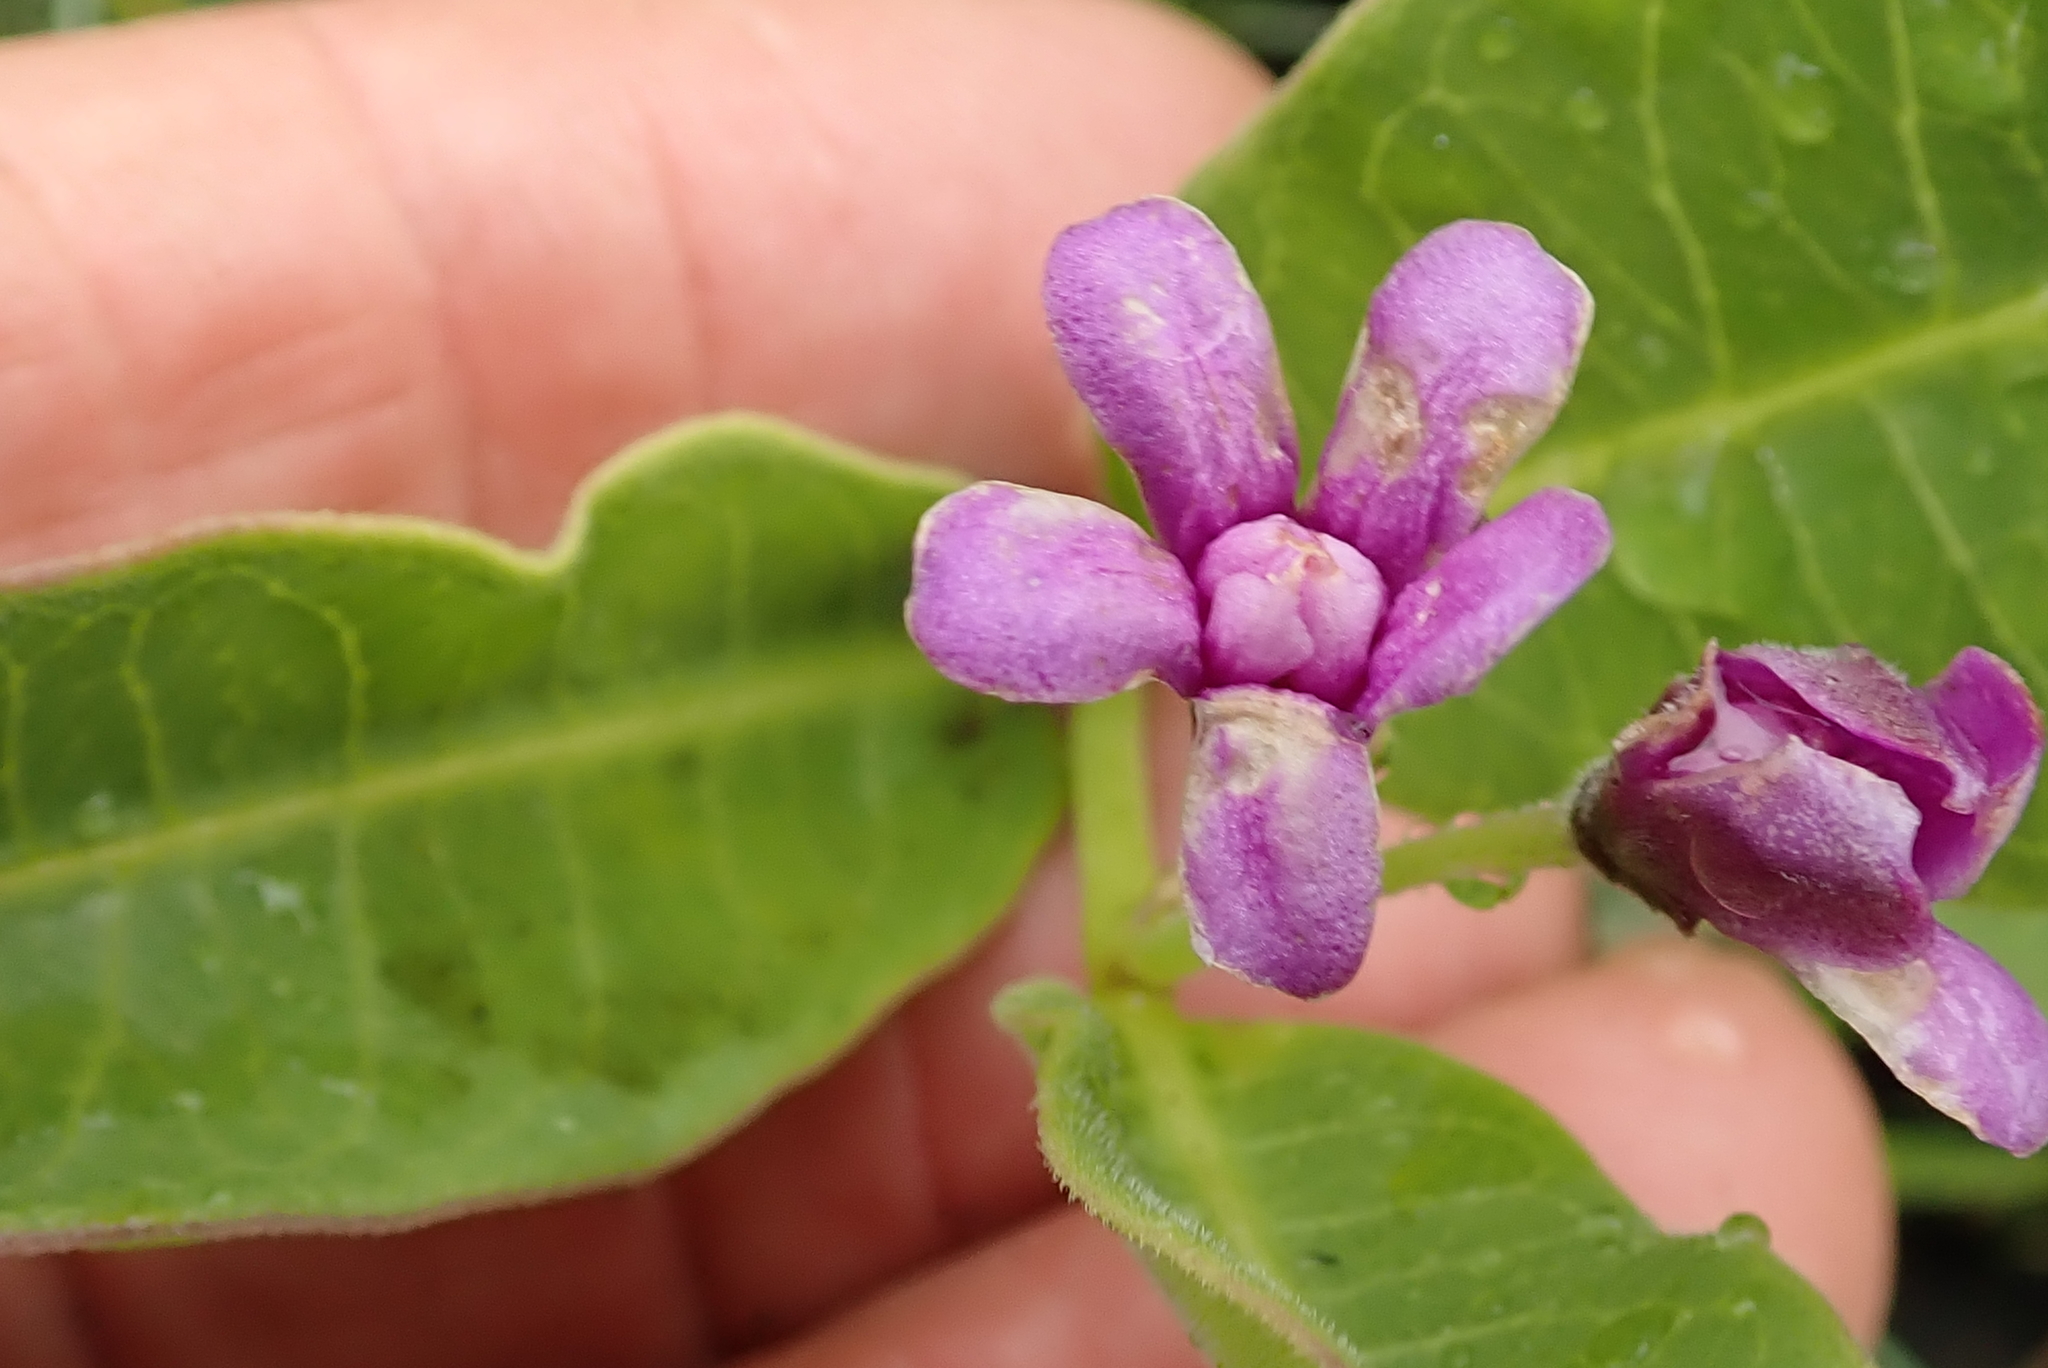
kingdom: Plantae
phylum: Tracheophyta
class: Magnoliopsida
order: Gentianales
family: Apocynaceae
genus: Raphionacme
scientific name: Raphionacme hirsuta
